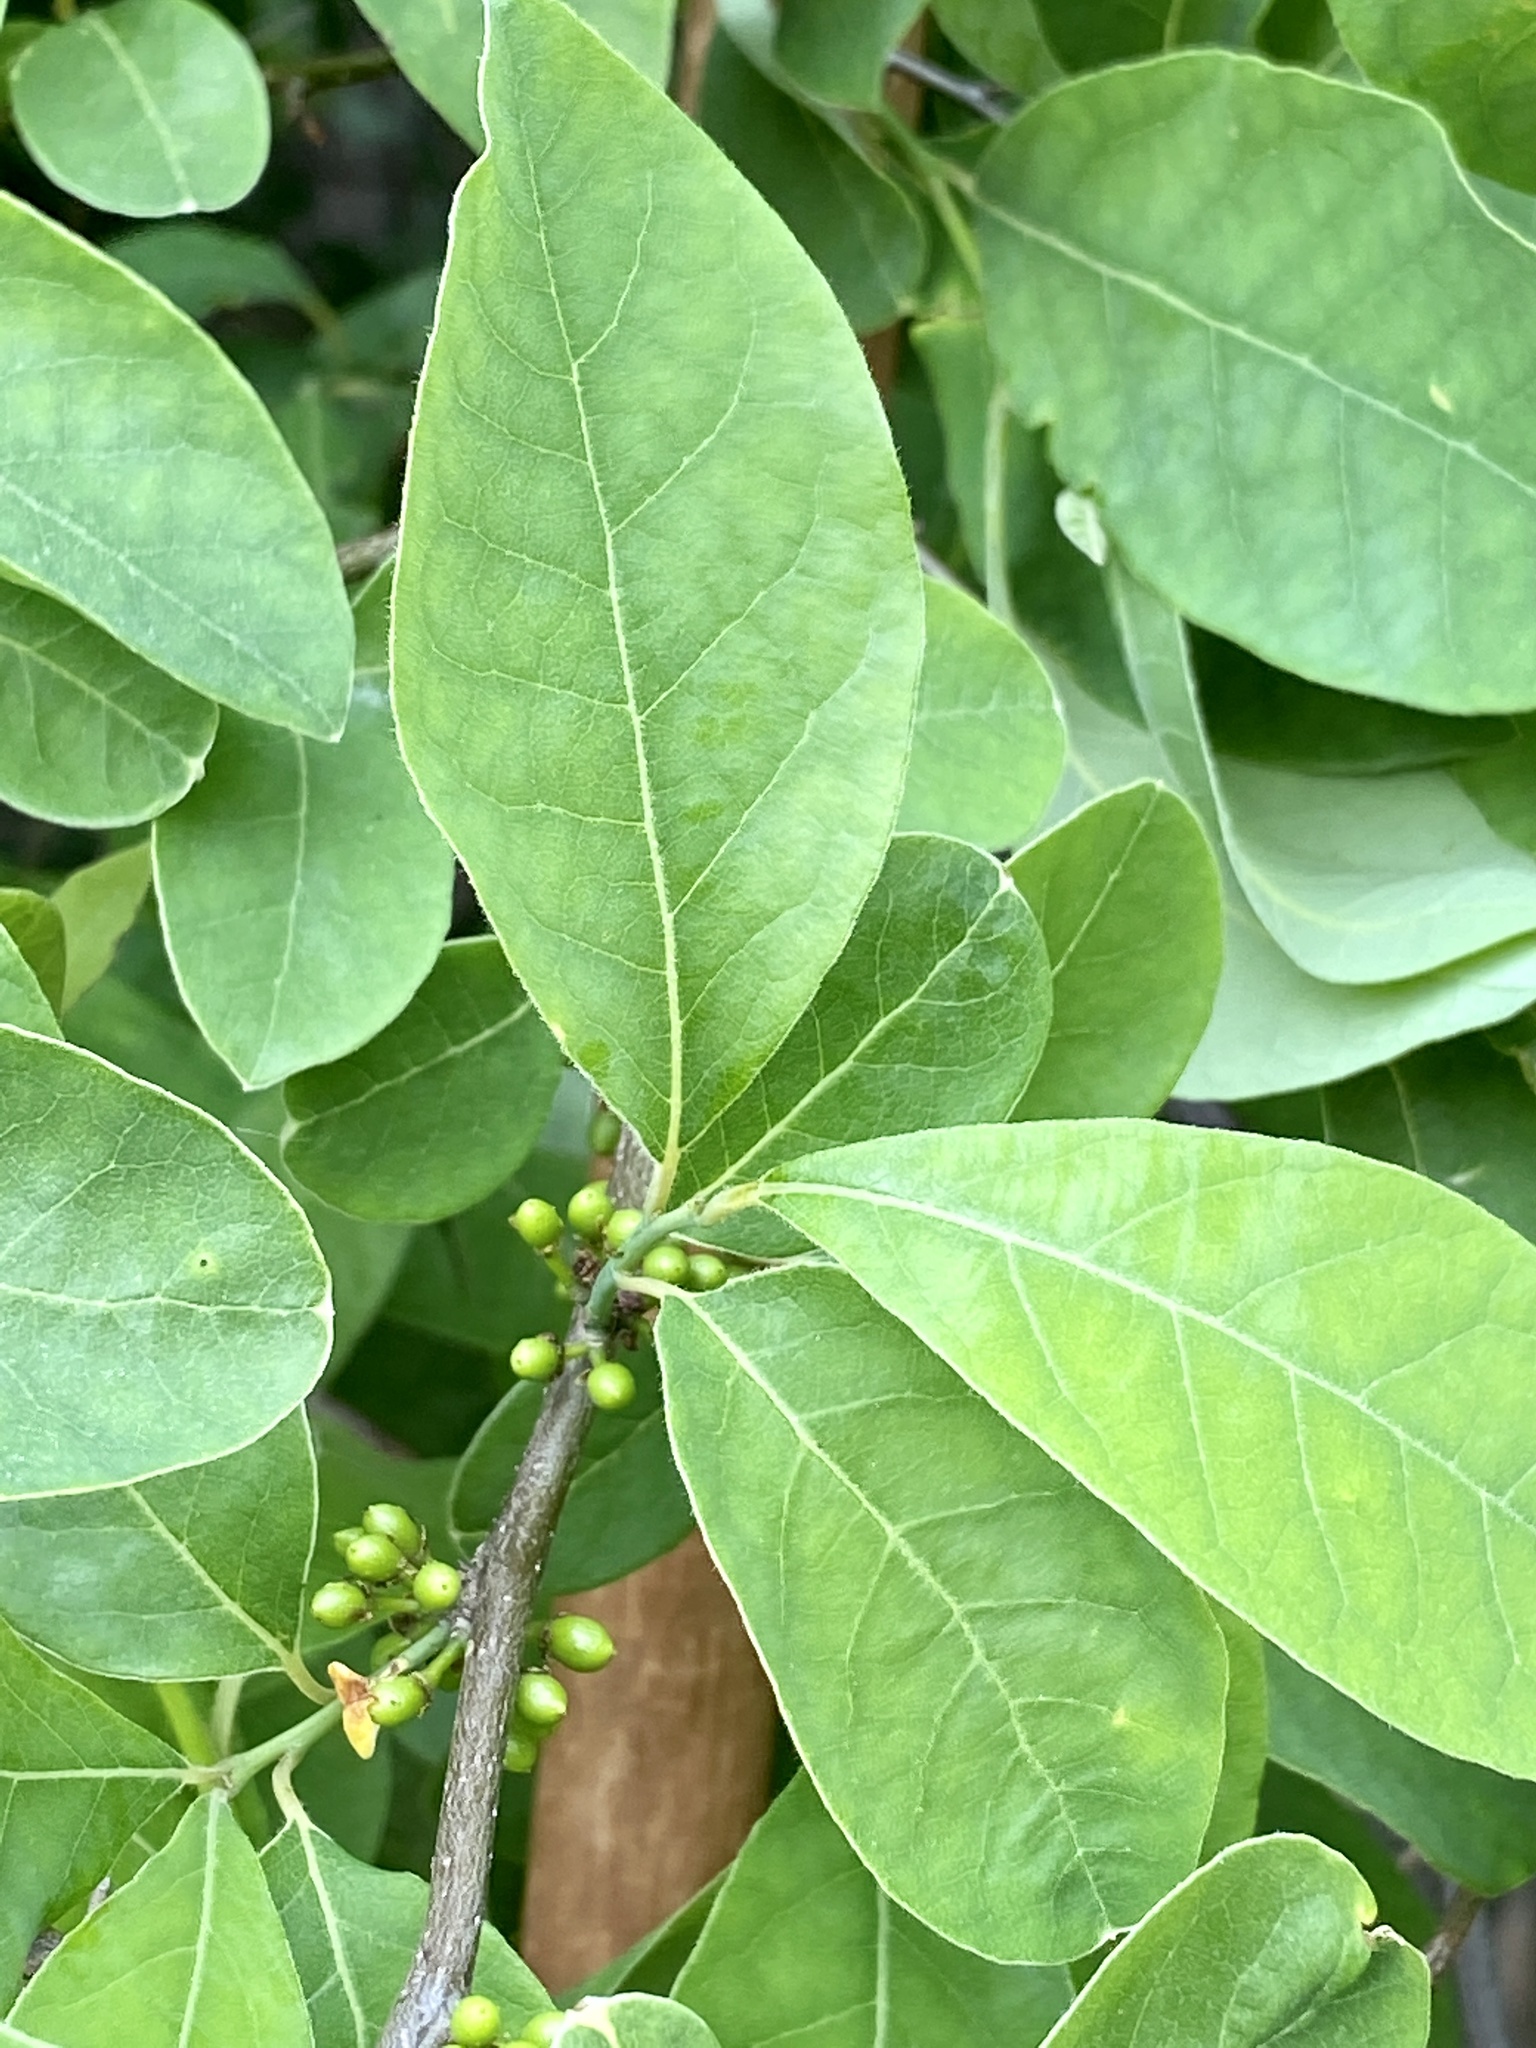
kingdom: Plantae
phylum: Tracheophyta
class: Magnoliopsida
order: Laurales
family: Lauraceae
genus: Lindera
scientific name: Lindera benzoin
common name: Spicebush
